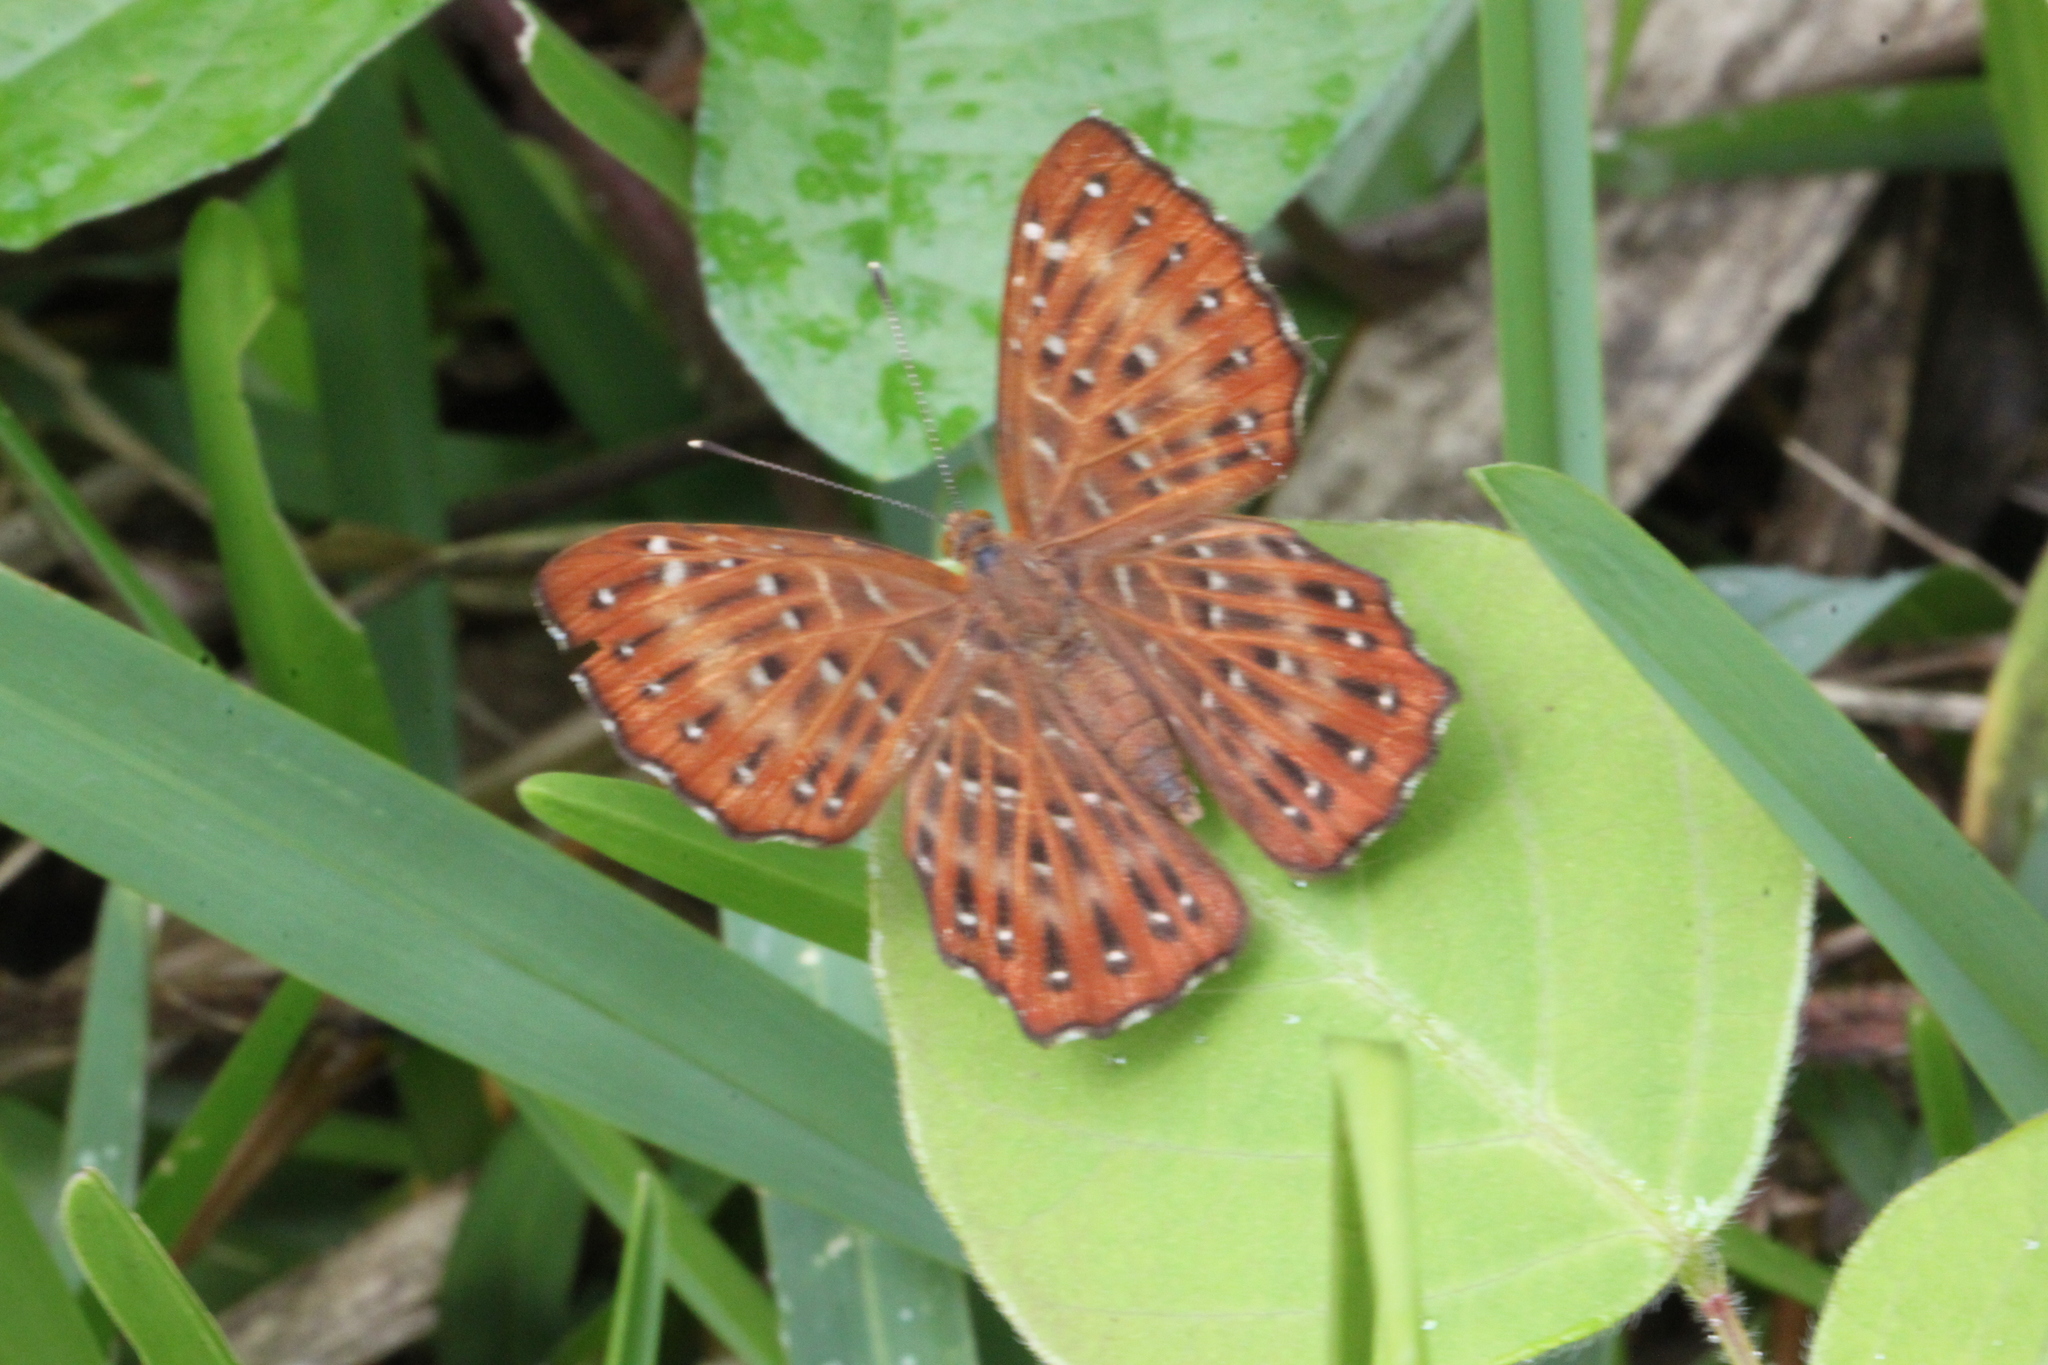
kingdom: Animalia
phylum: Arthropoda
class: Insecta
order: Lepidoptera
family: Riodinidae
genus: Zemeros
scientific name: Zemeros flegyas
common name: Punchinello
